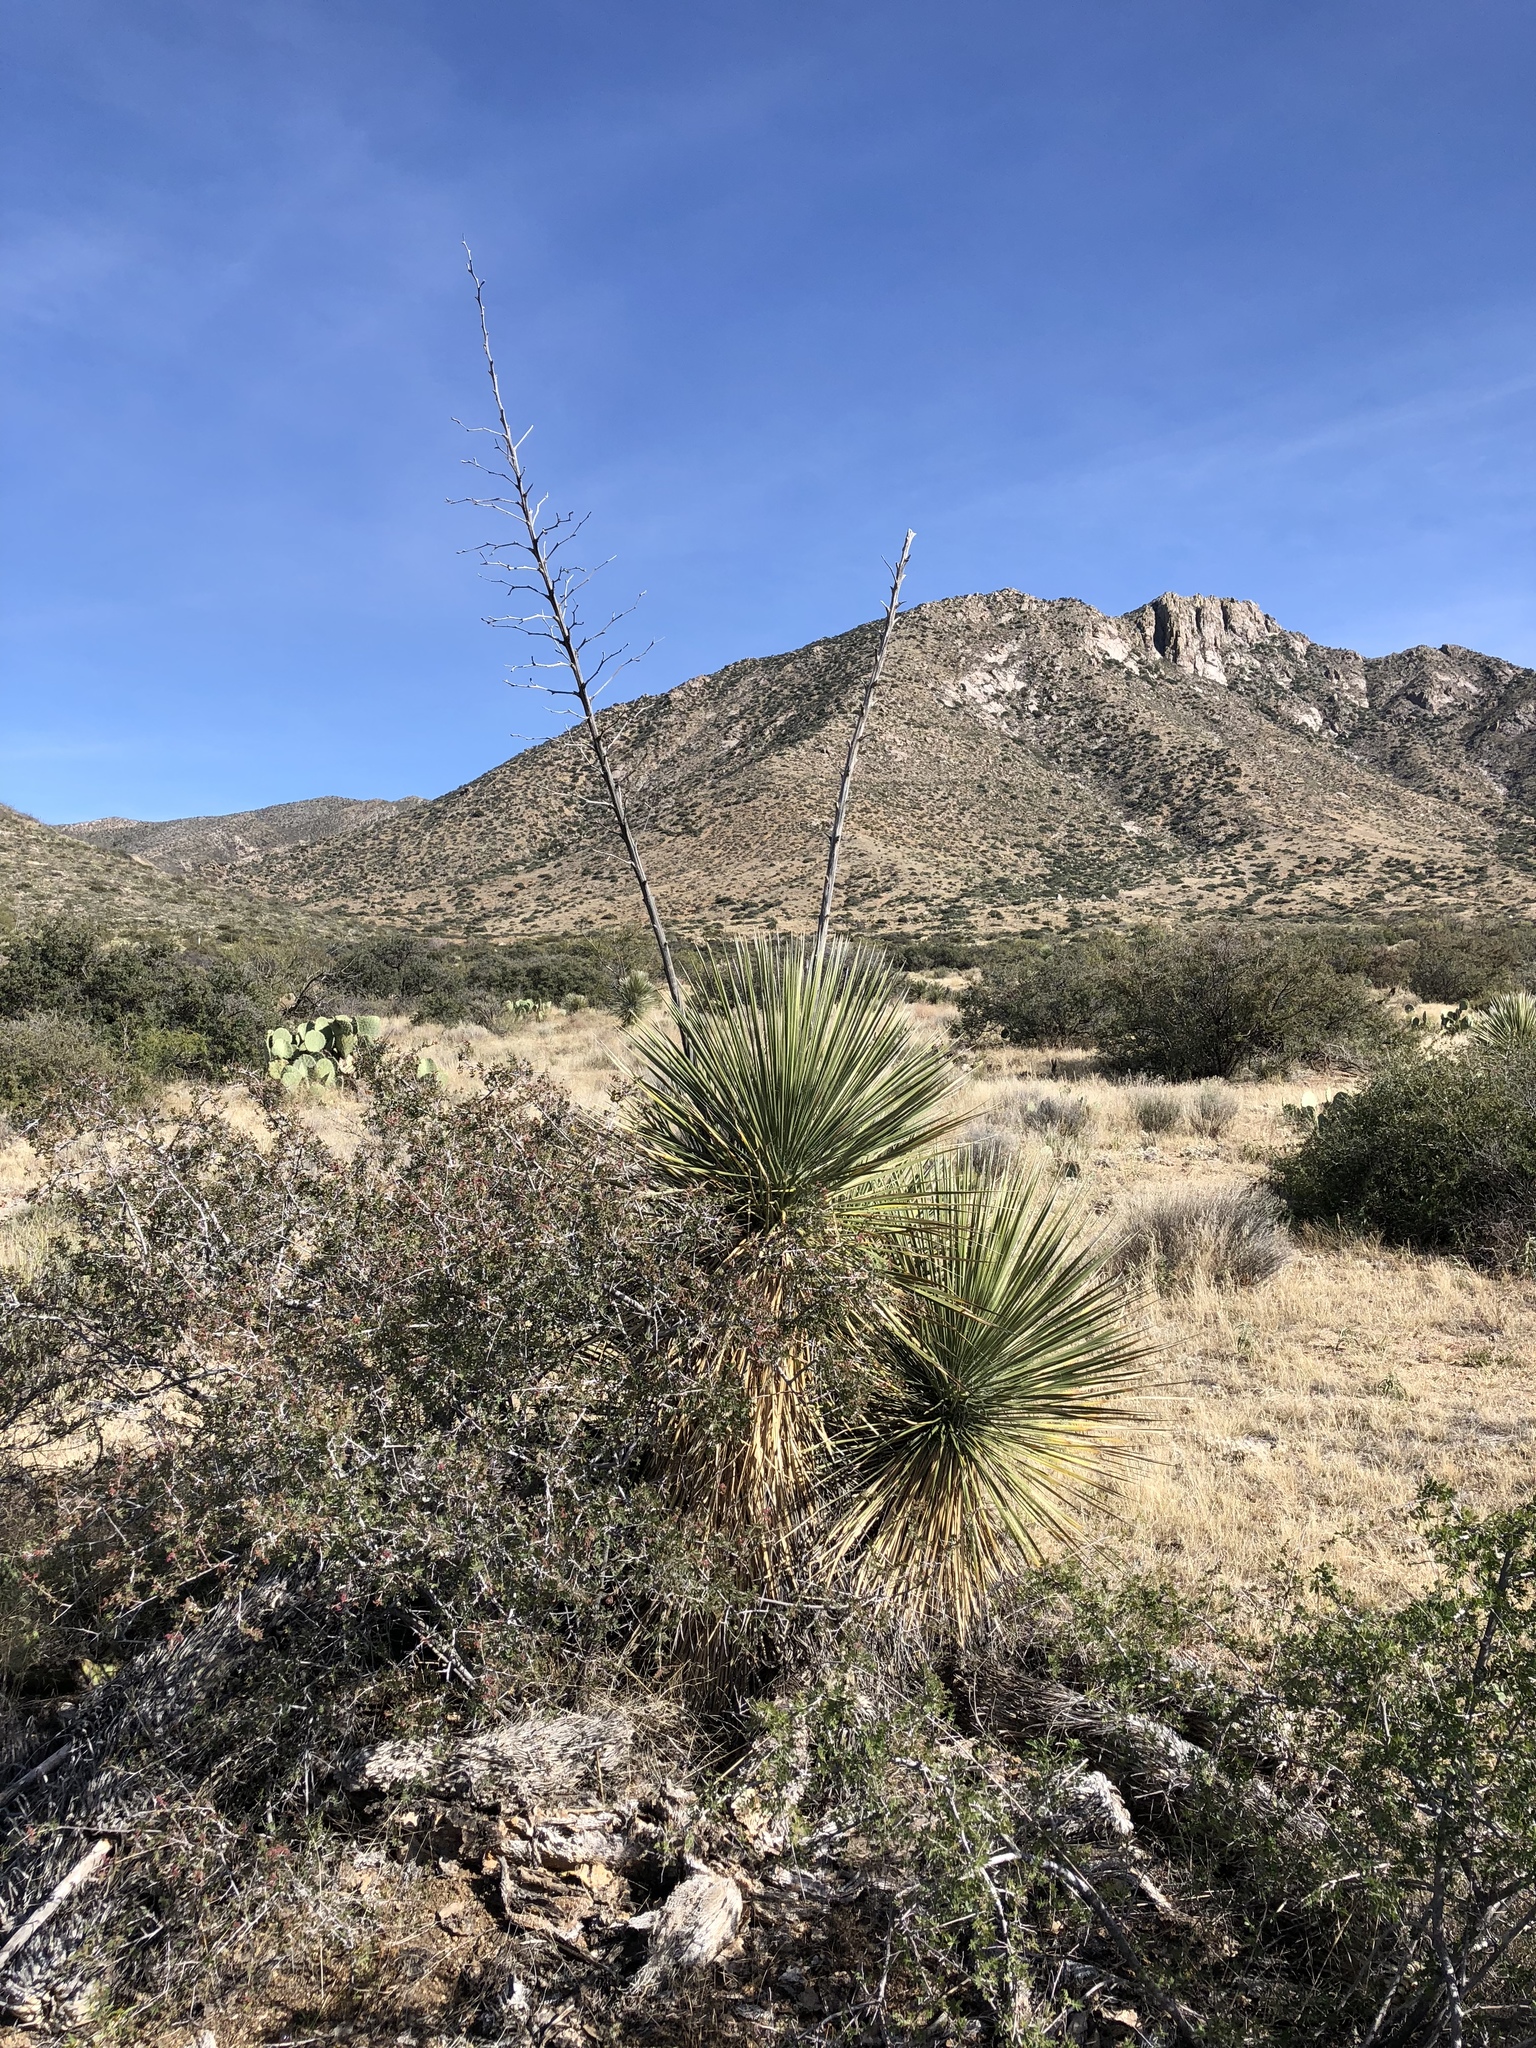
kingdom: Plantae
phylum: Tracheophyta
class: Liliopsida
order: Asparagales
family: Asparagaceae
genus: Yucca
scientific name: Yucca elata
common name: Palmella
